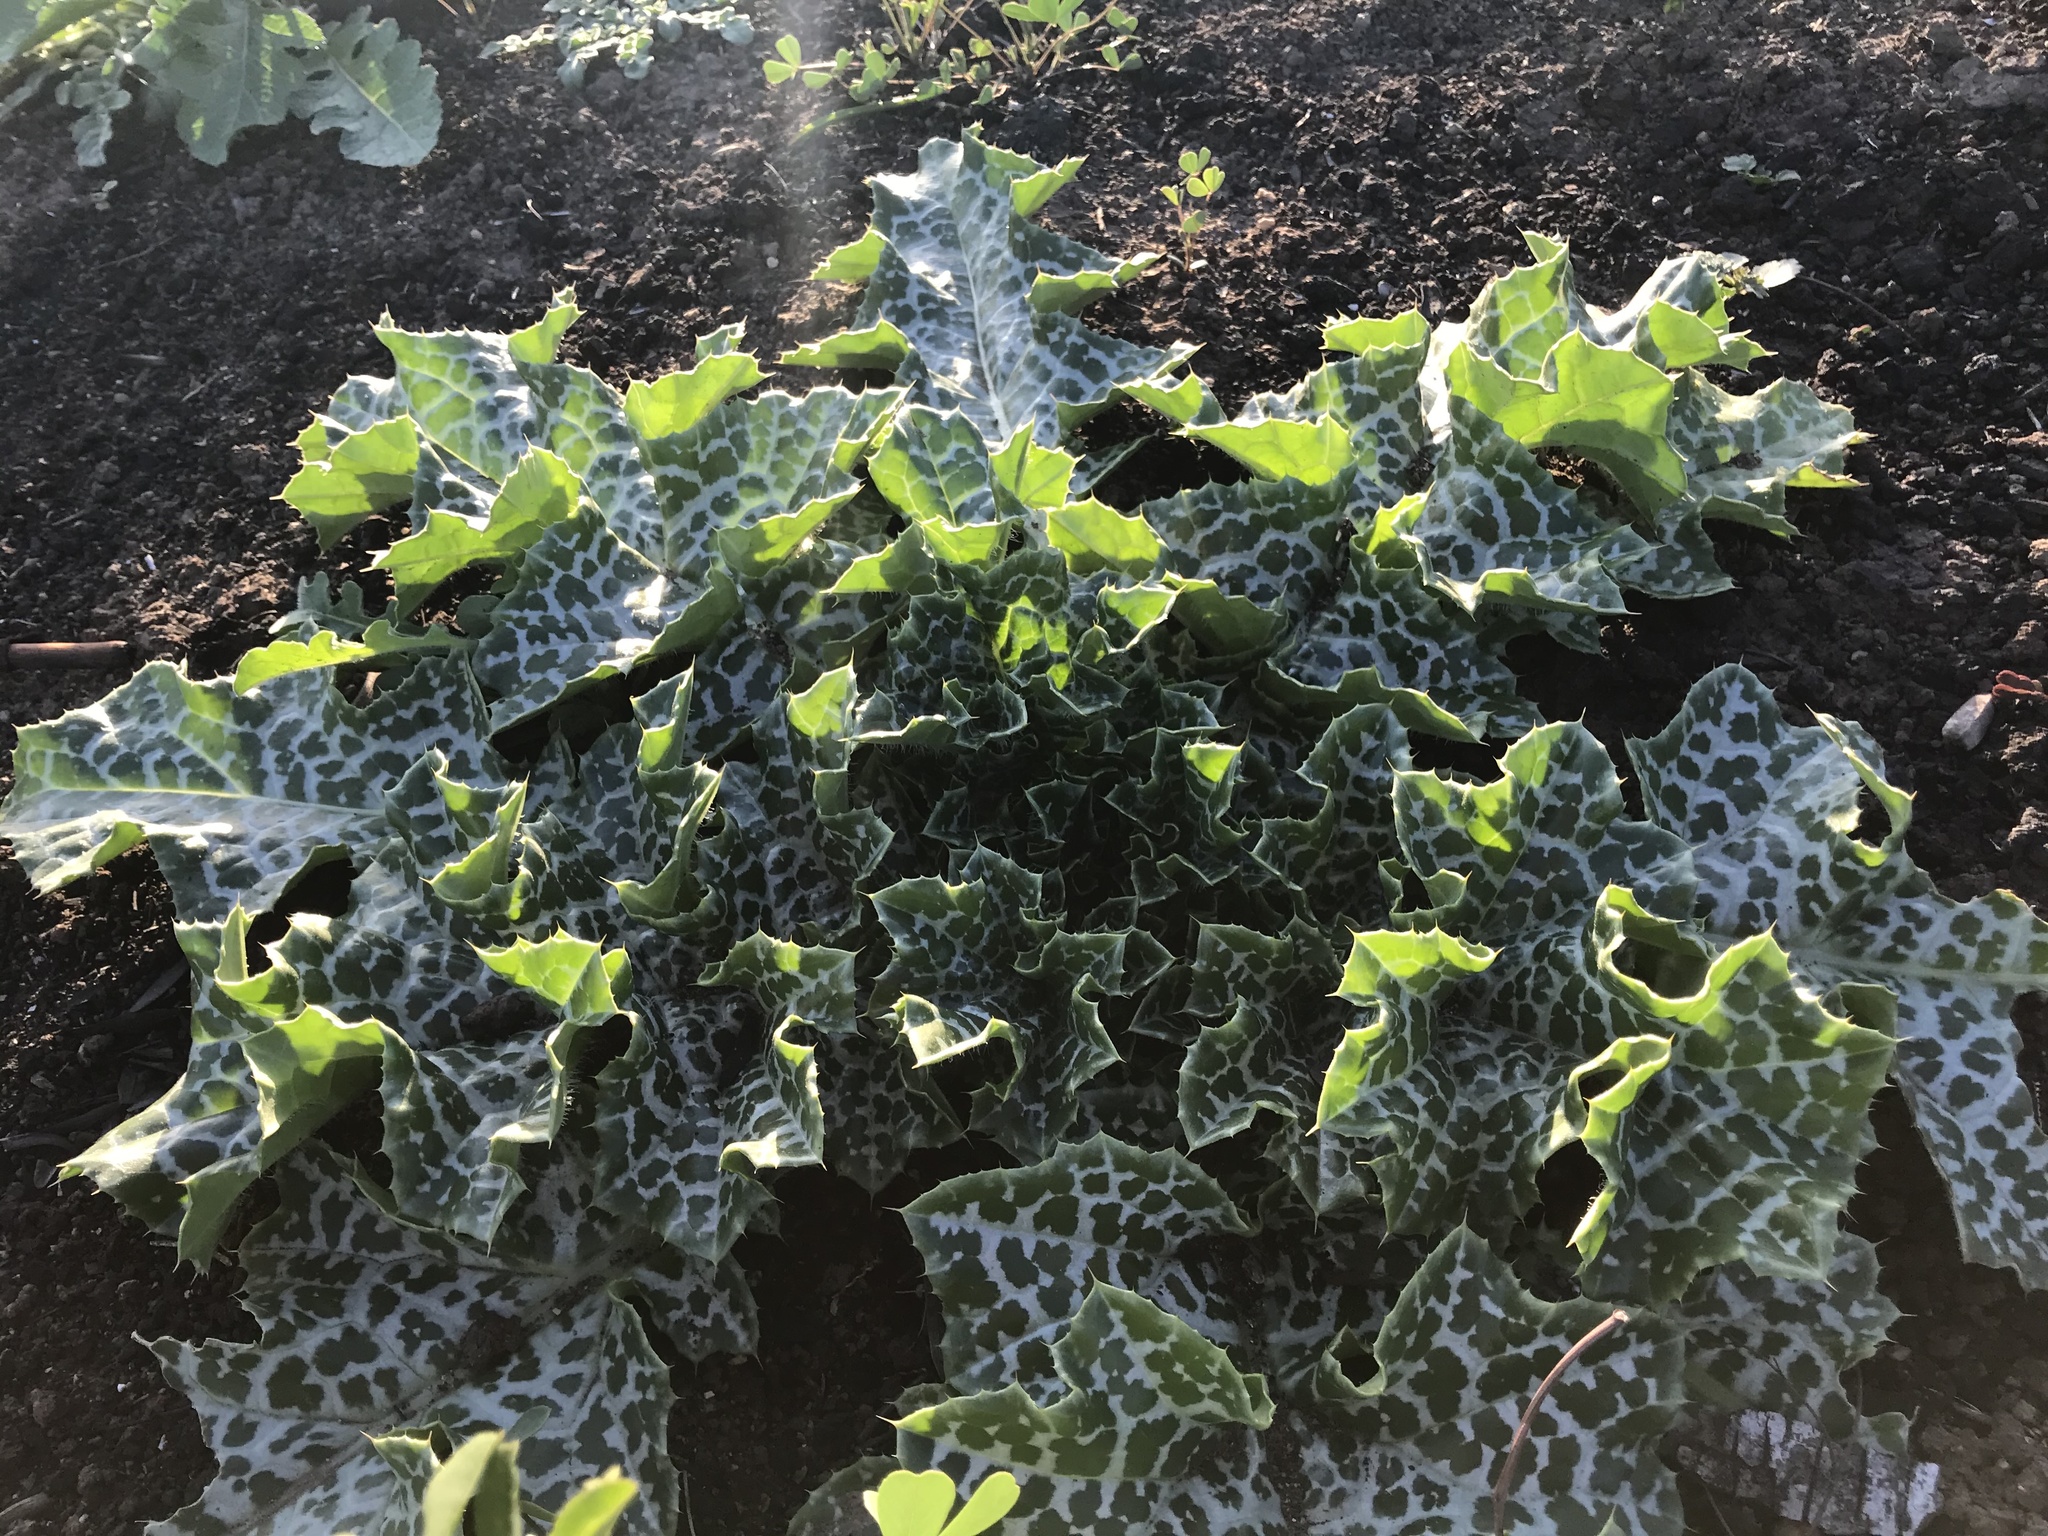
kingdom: Plantae
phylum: Tracheophyta
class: Magnoliopsida
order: Asterales
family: Asteraceae
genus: Silybum
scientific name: Silybum marianum
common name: Milk thistle
